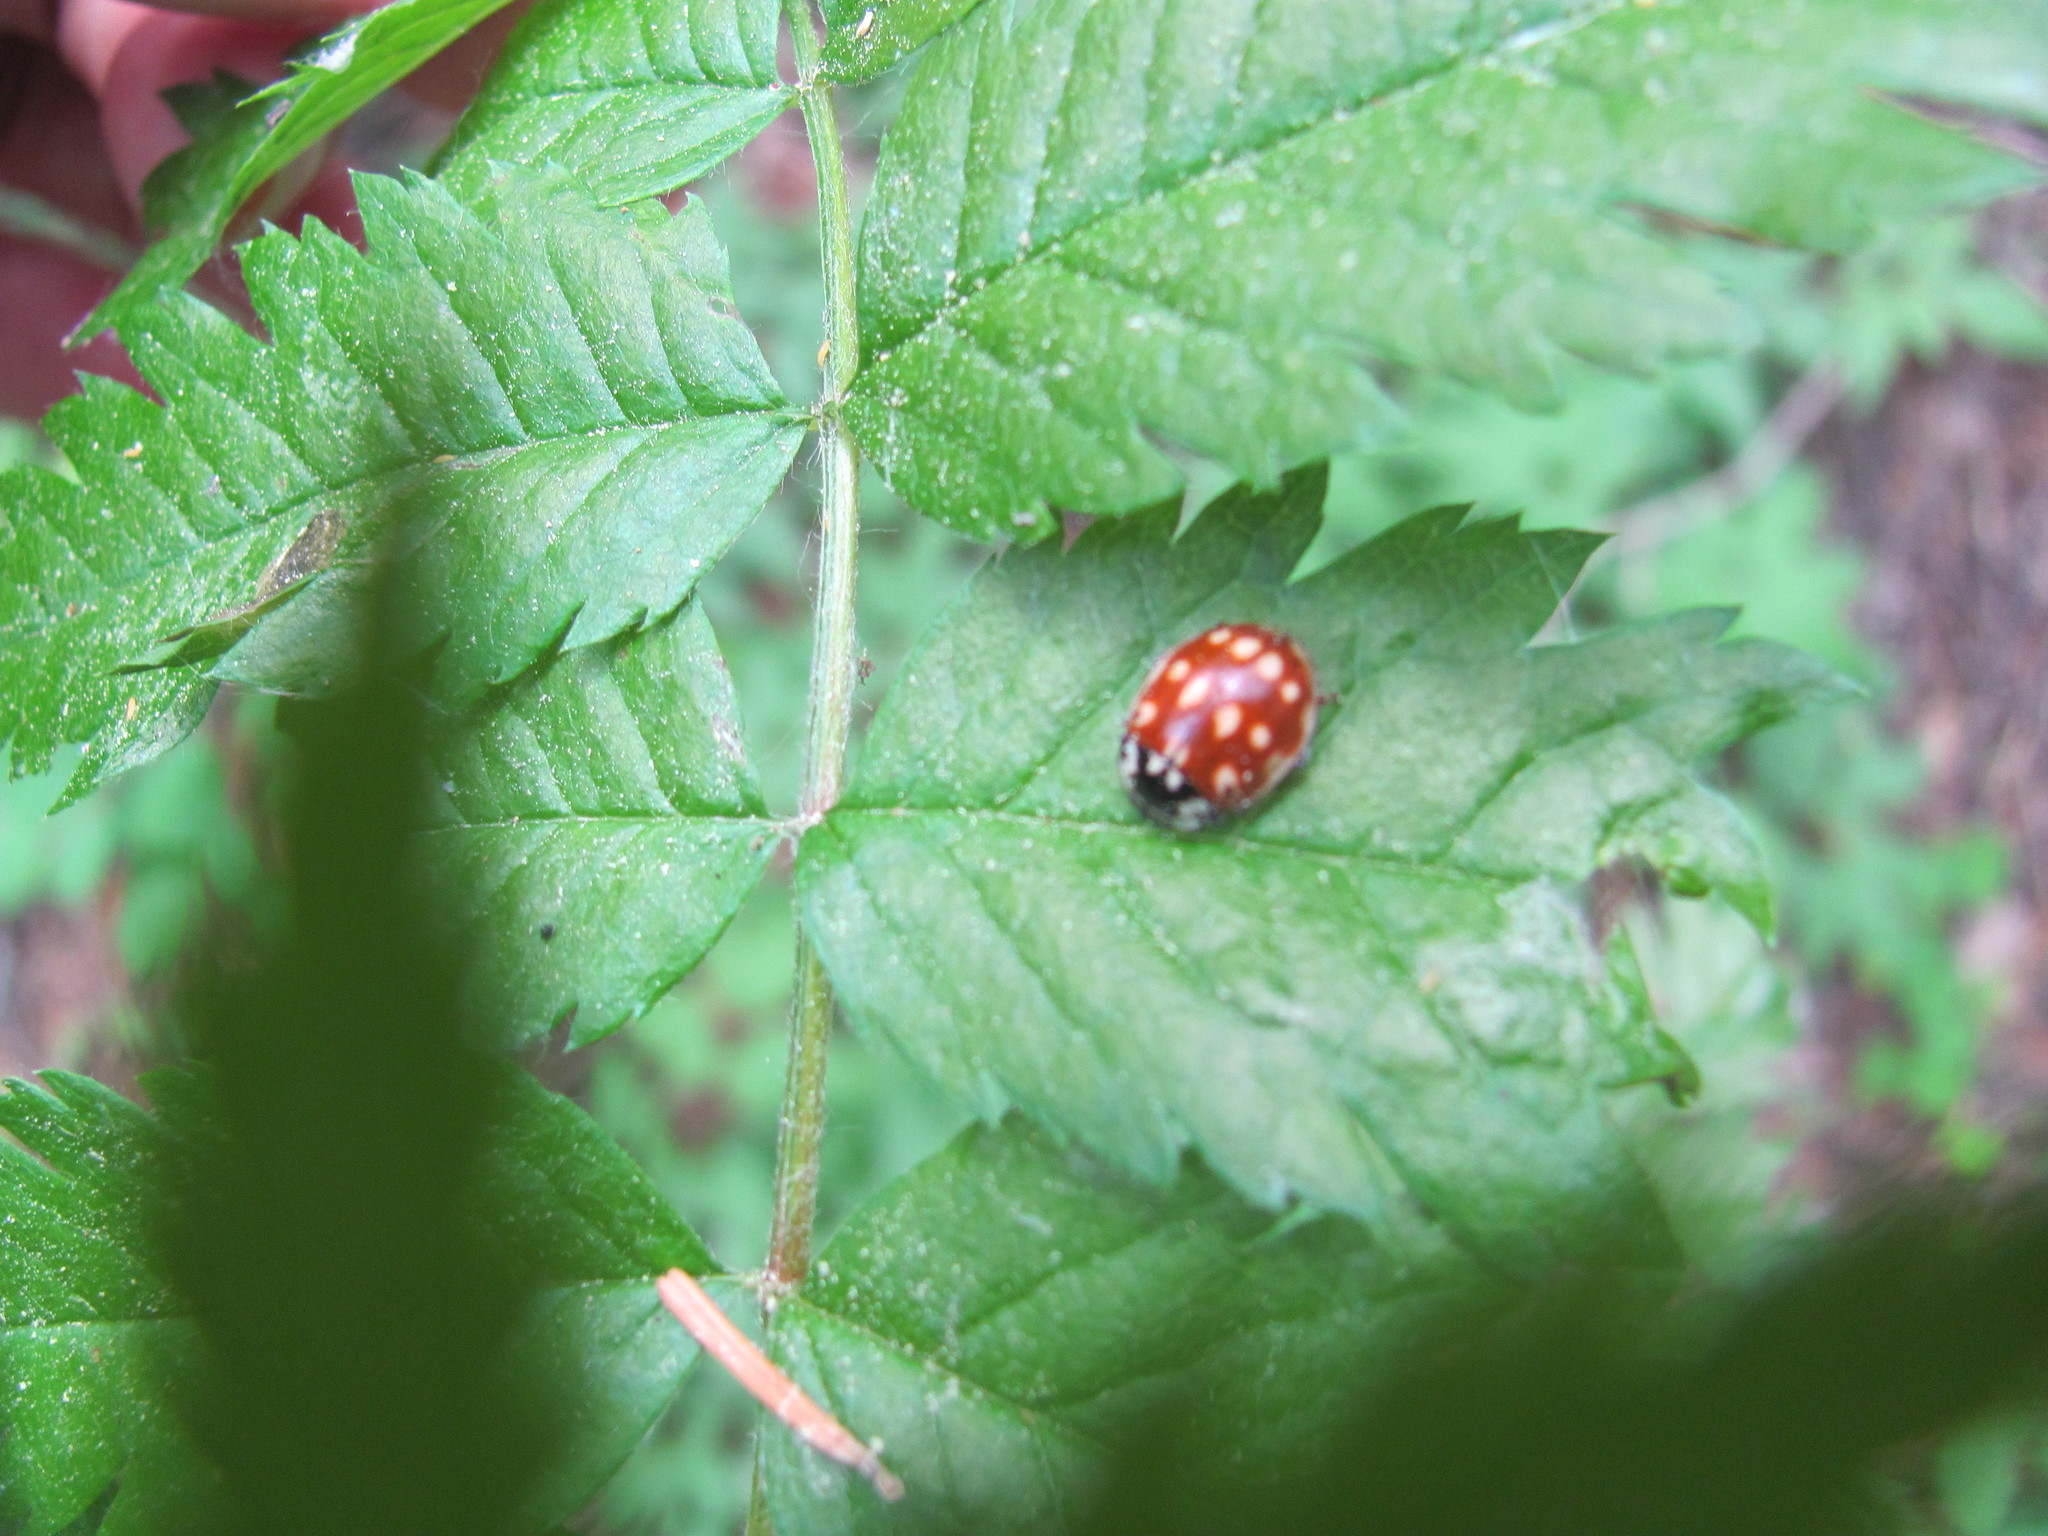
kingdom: Animalia
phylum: Arthropoda
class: Insecta
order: Coleoptera
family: Coccinellidae
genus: Anatis
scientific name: Anatis ocellata
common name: Eyed ladybird
